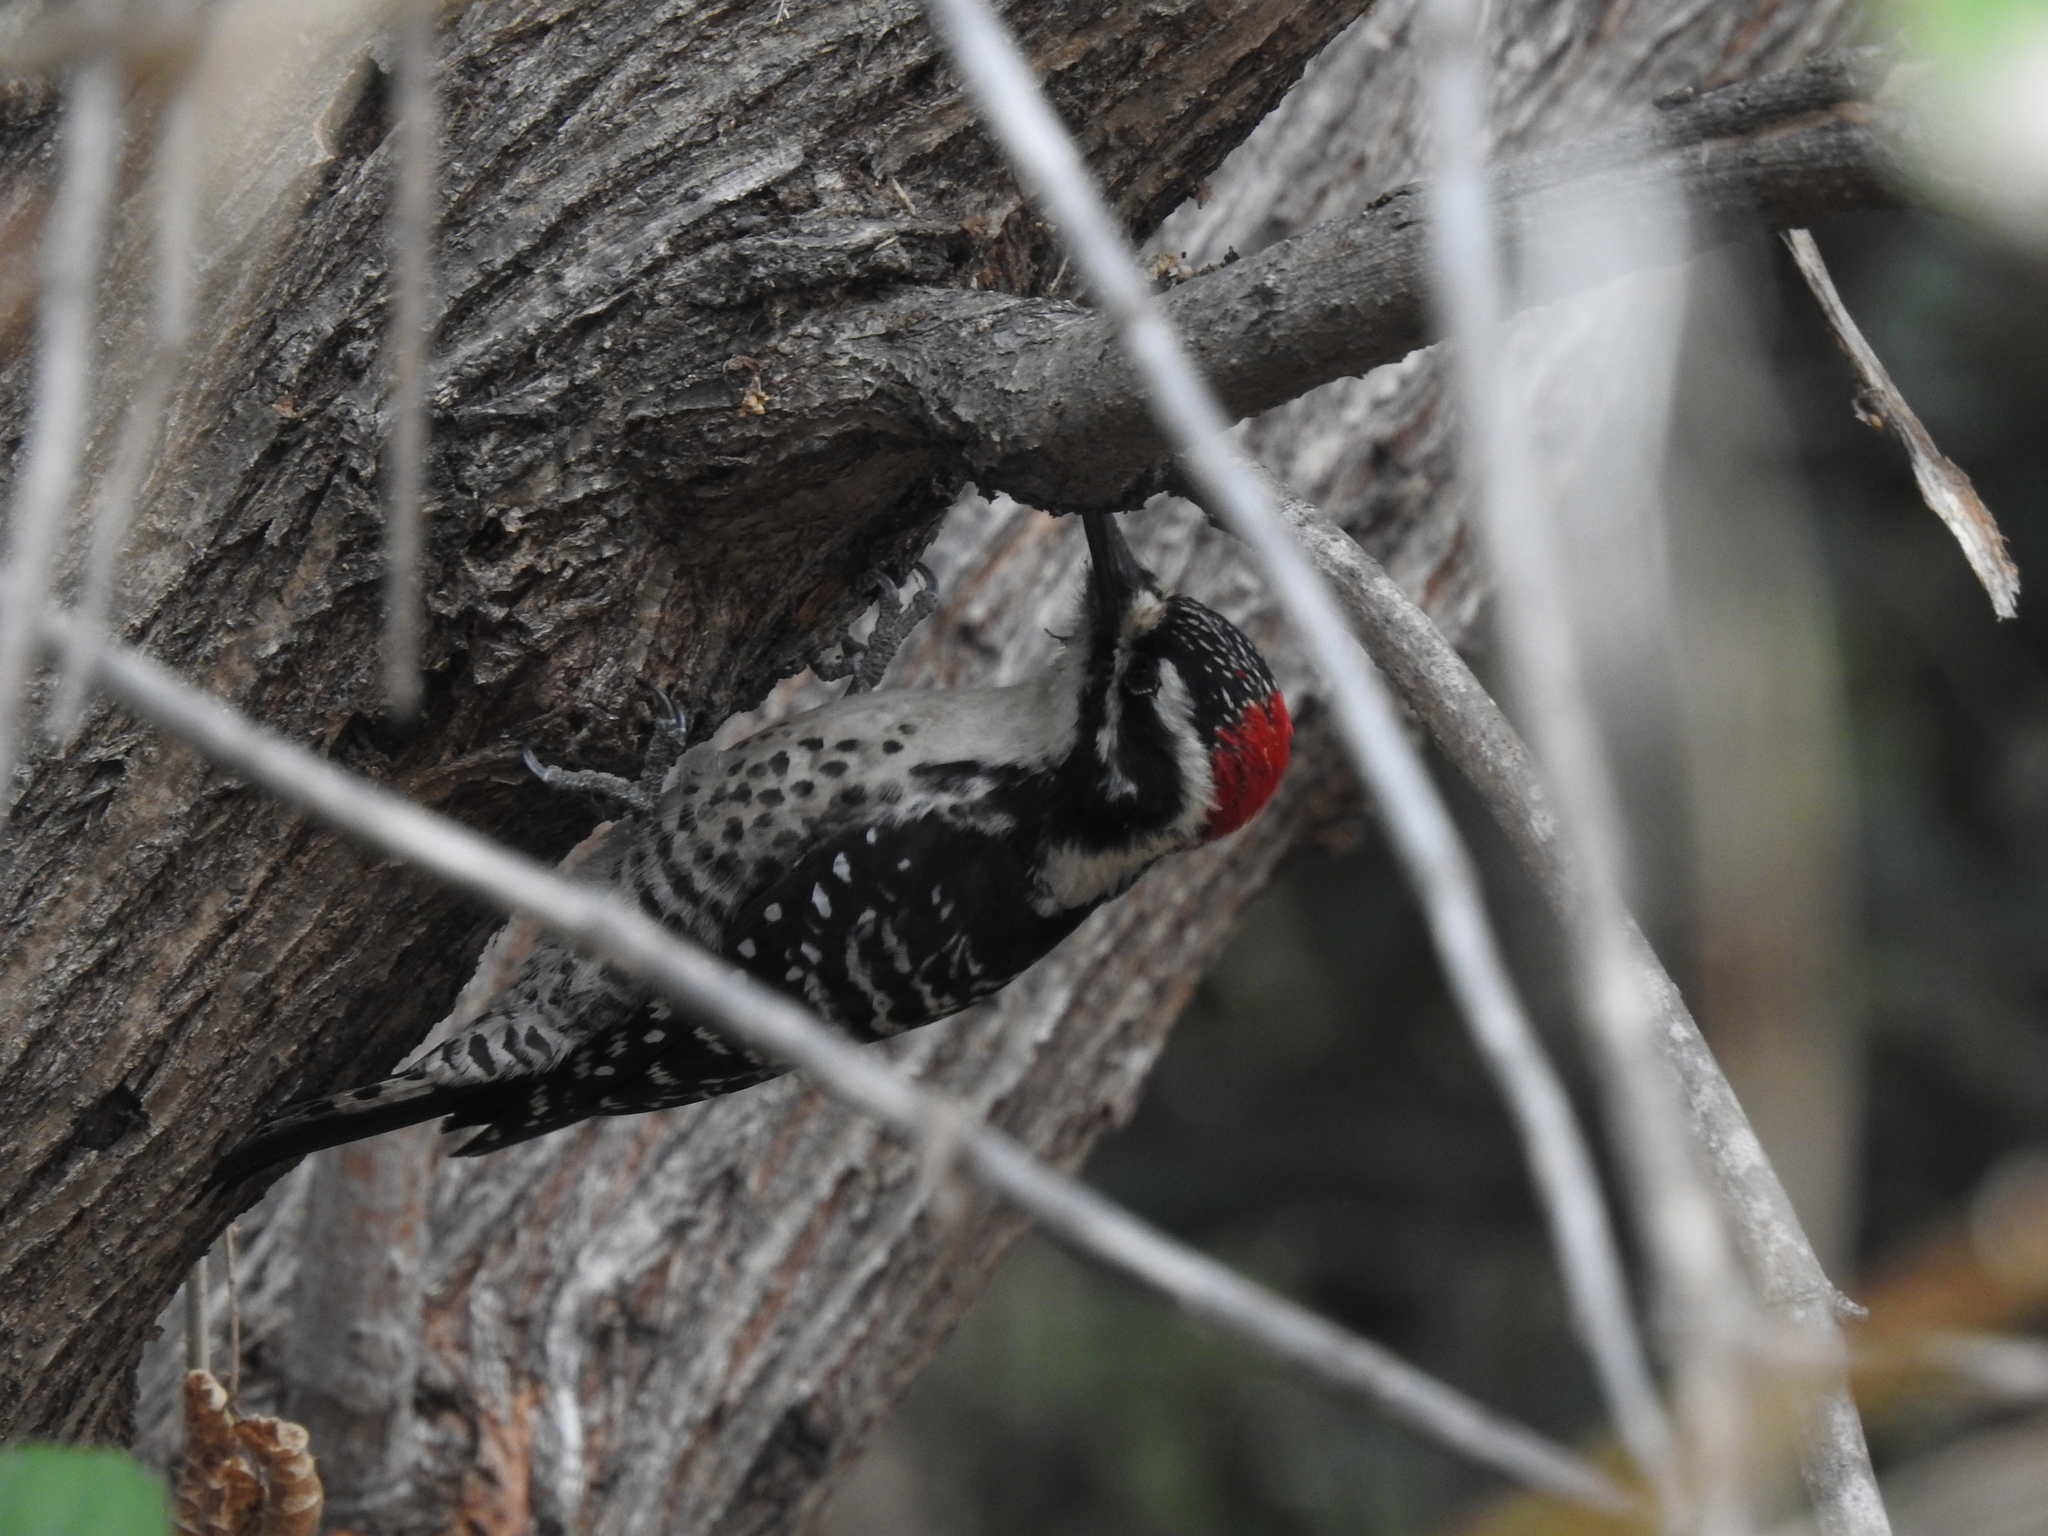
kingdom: Animalia
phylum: Chordata
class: Aves
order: Piciformes
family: Picidae
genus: Dryobates
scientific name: Dryobates nuttallii
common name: Nuttall's woodpecker
